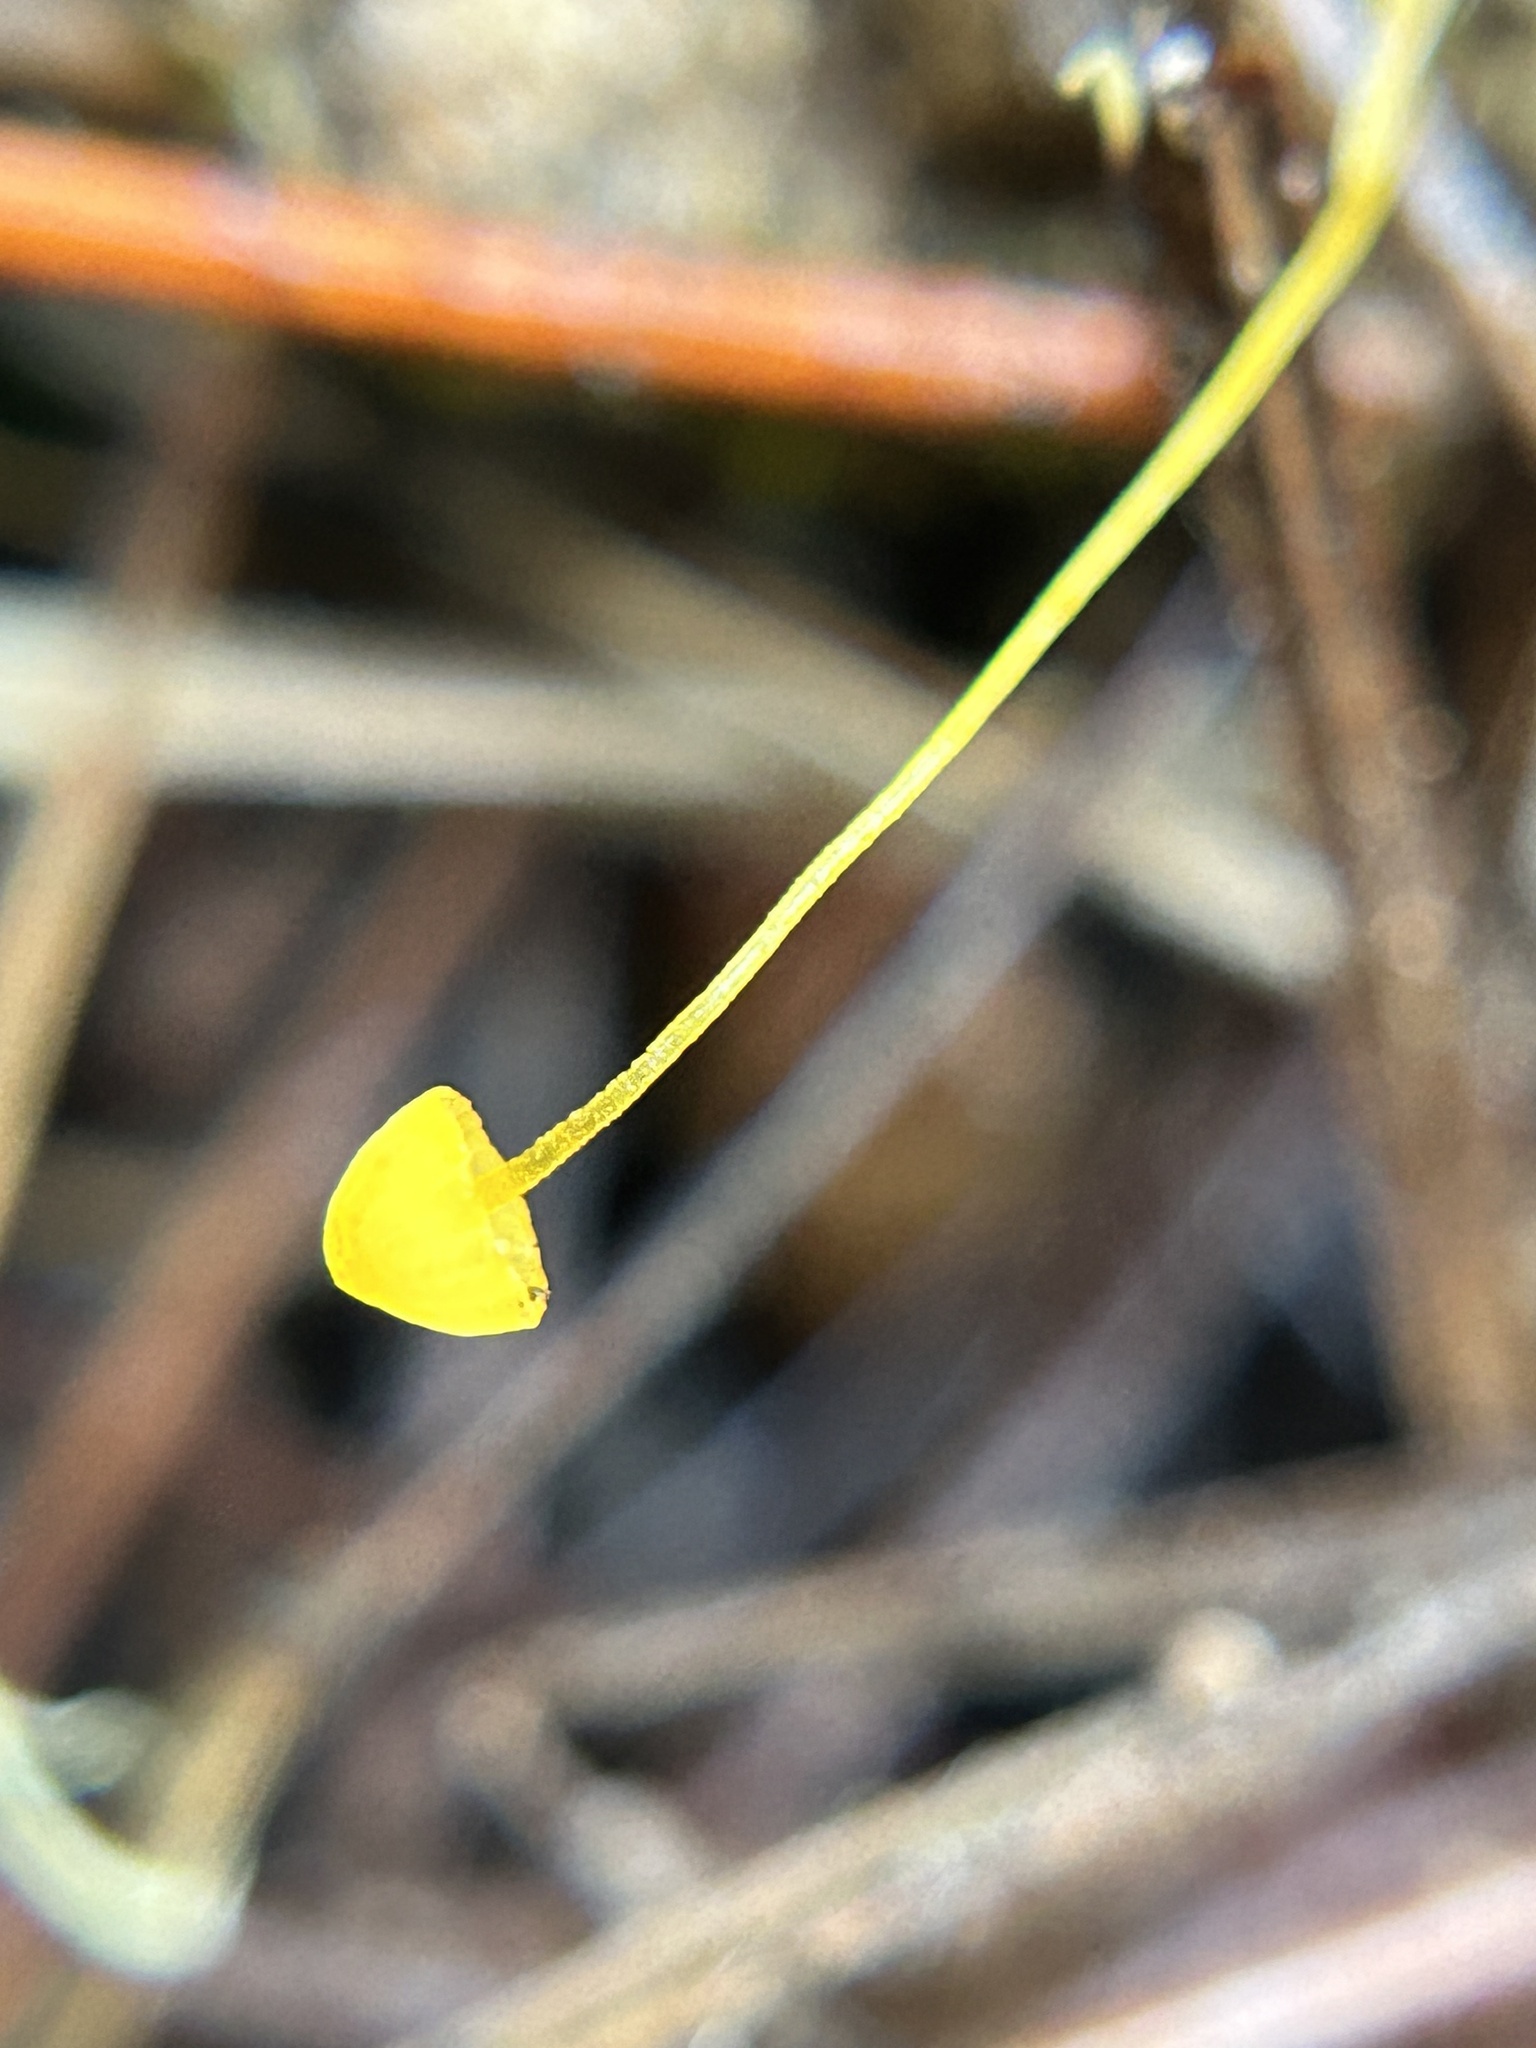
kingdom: Fungi
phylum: Basidiomycota
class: Agaricomycetes
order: Agaricales
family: Mycenaceae
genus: Mycena
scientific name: Mycena oregonensis
